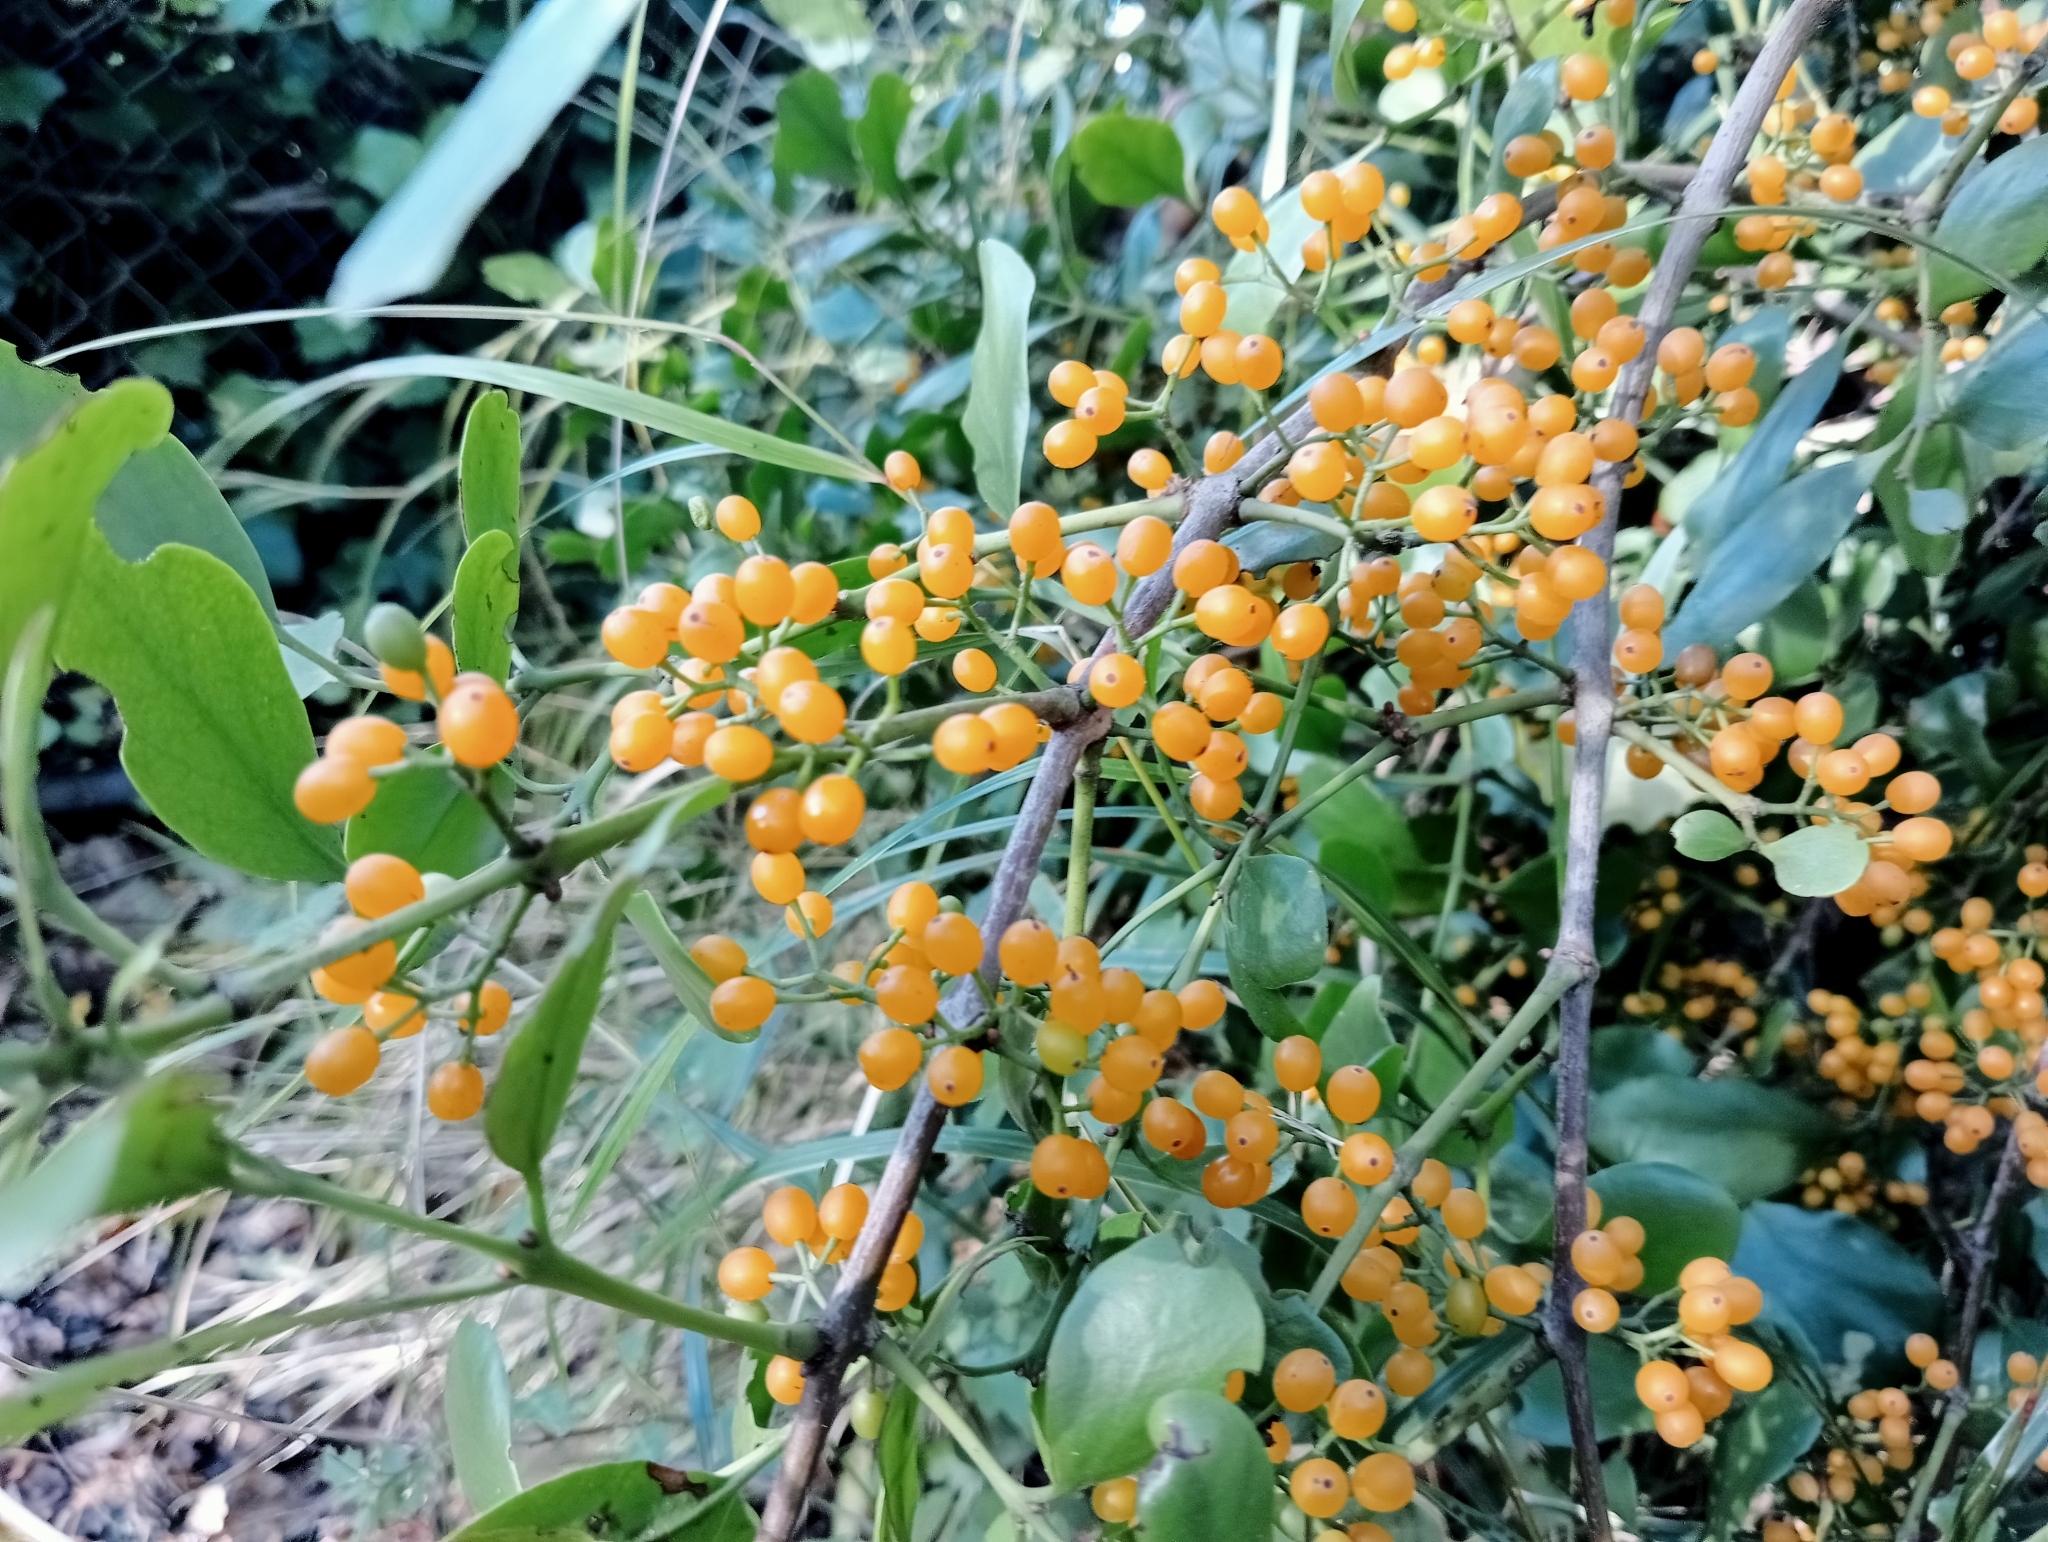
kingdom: Plantae
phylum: Tracheophyta
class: Magnoliopsida
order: Santalales
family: Loranthaceae
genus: Ileostylus
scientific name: Ileostylus micranthus
